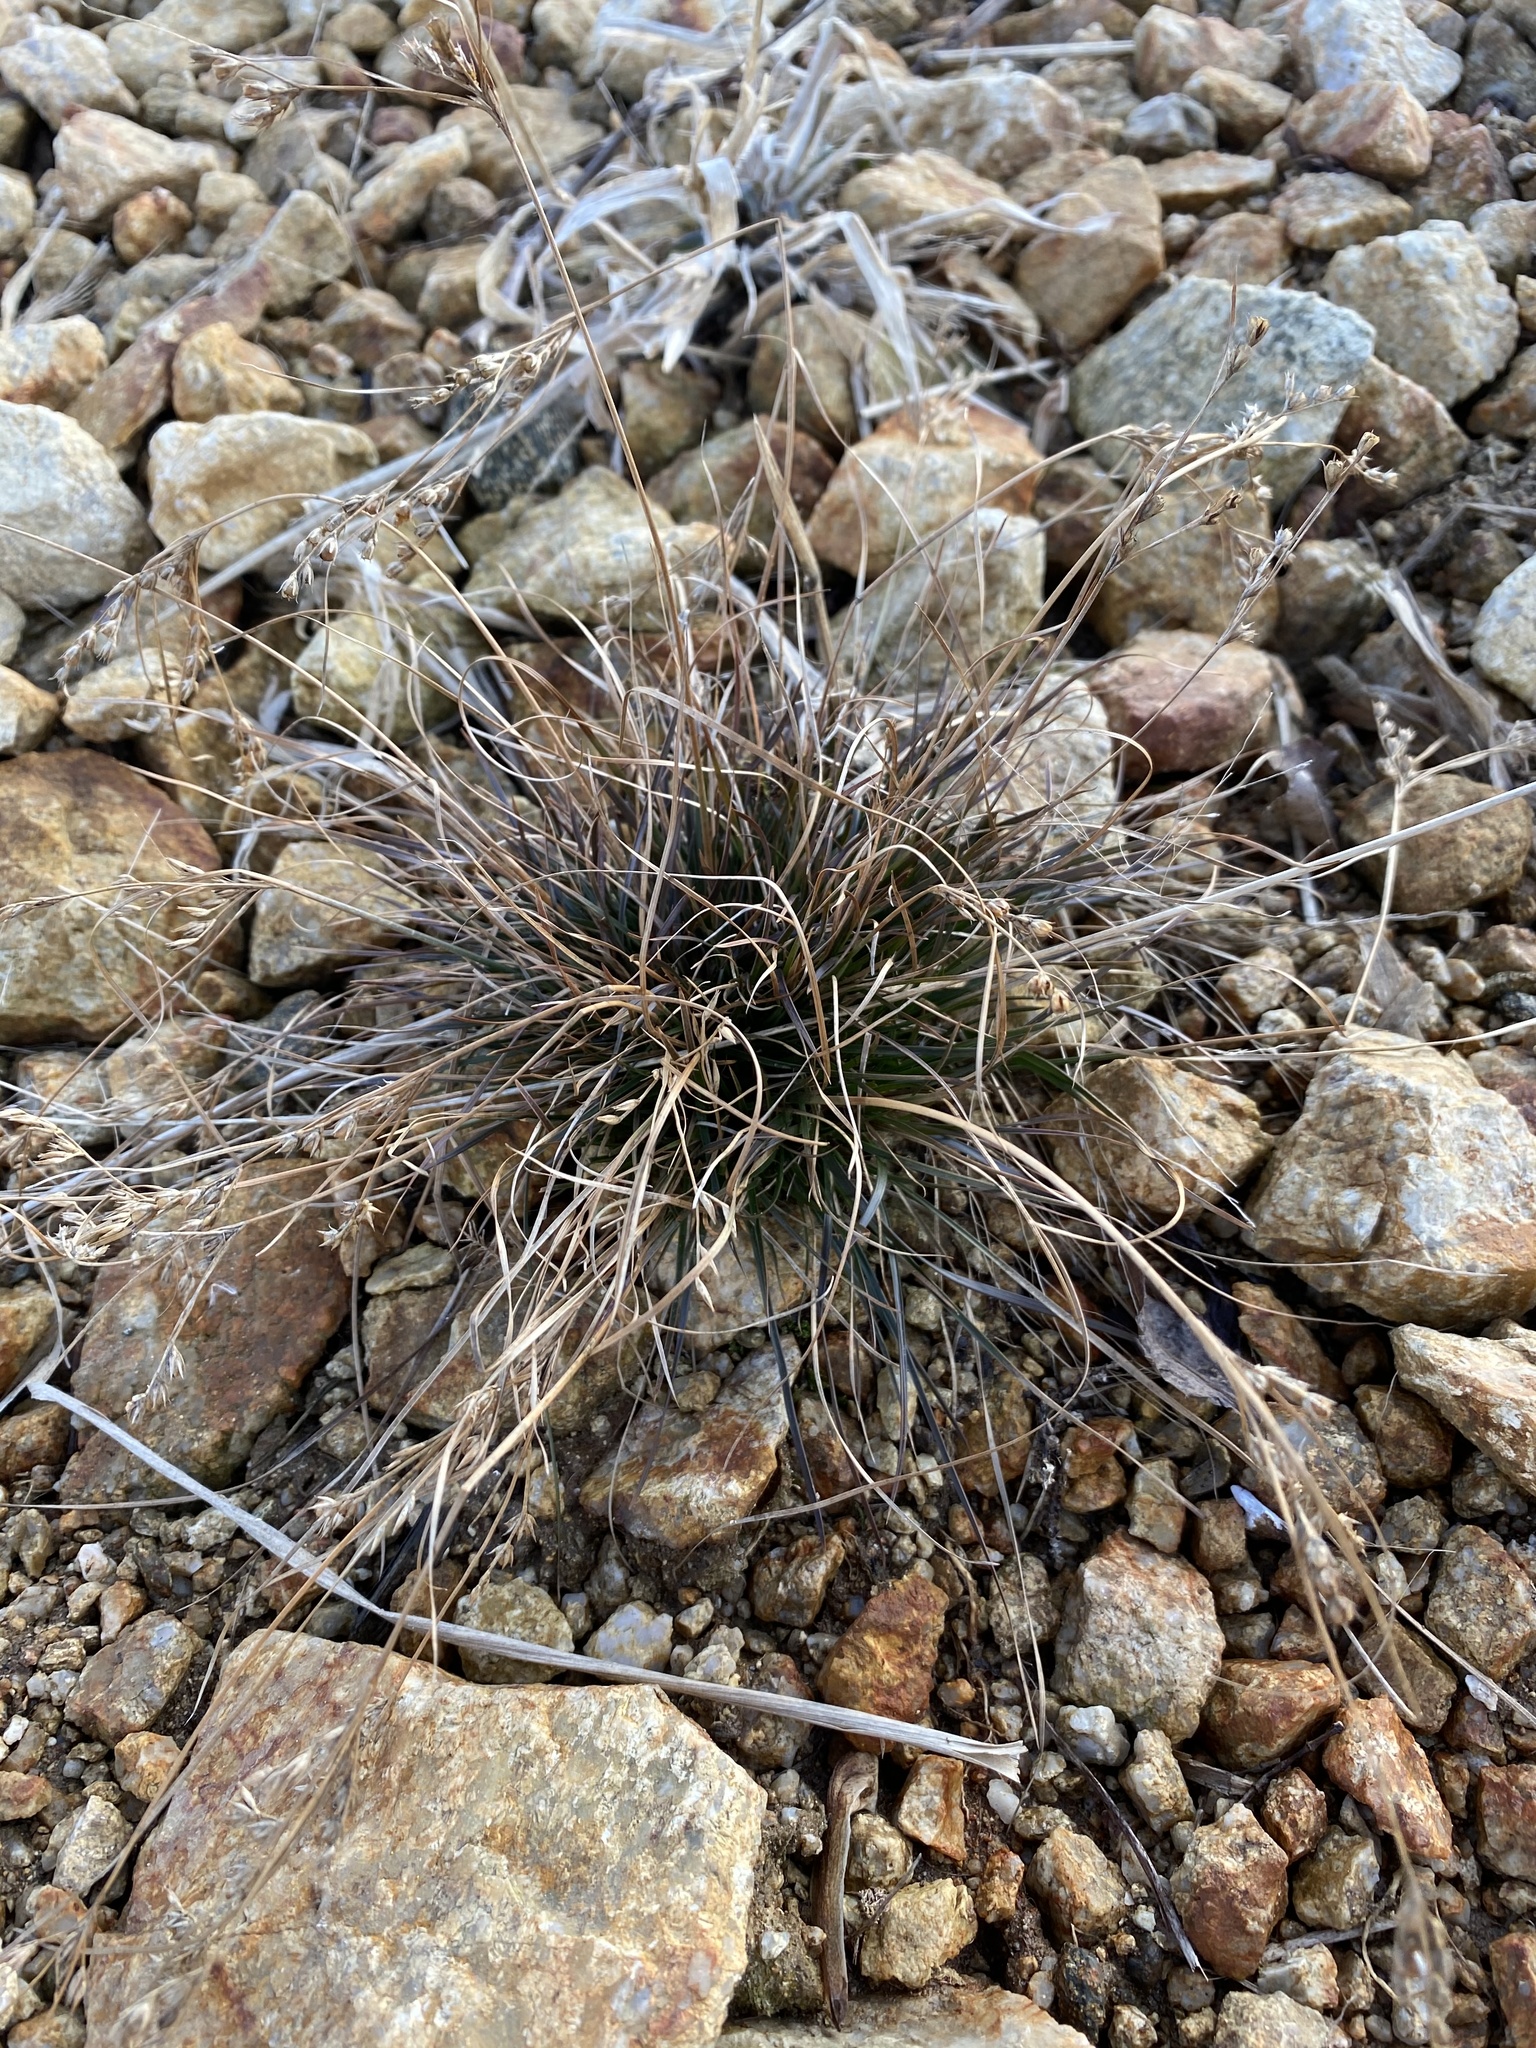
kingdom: Plantae
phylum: Tracheophyta
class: Liliopsida
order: Poales
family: Juncaceae
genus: Juncus
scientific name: Juncus tenuis
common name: Slender rush
